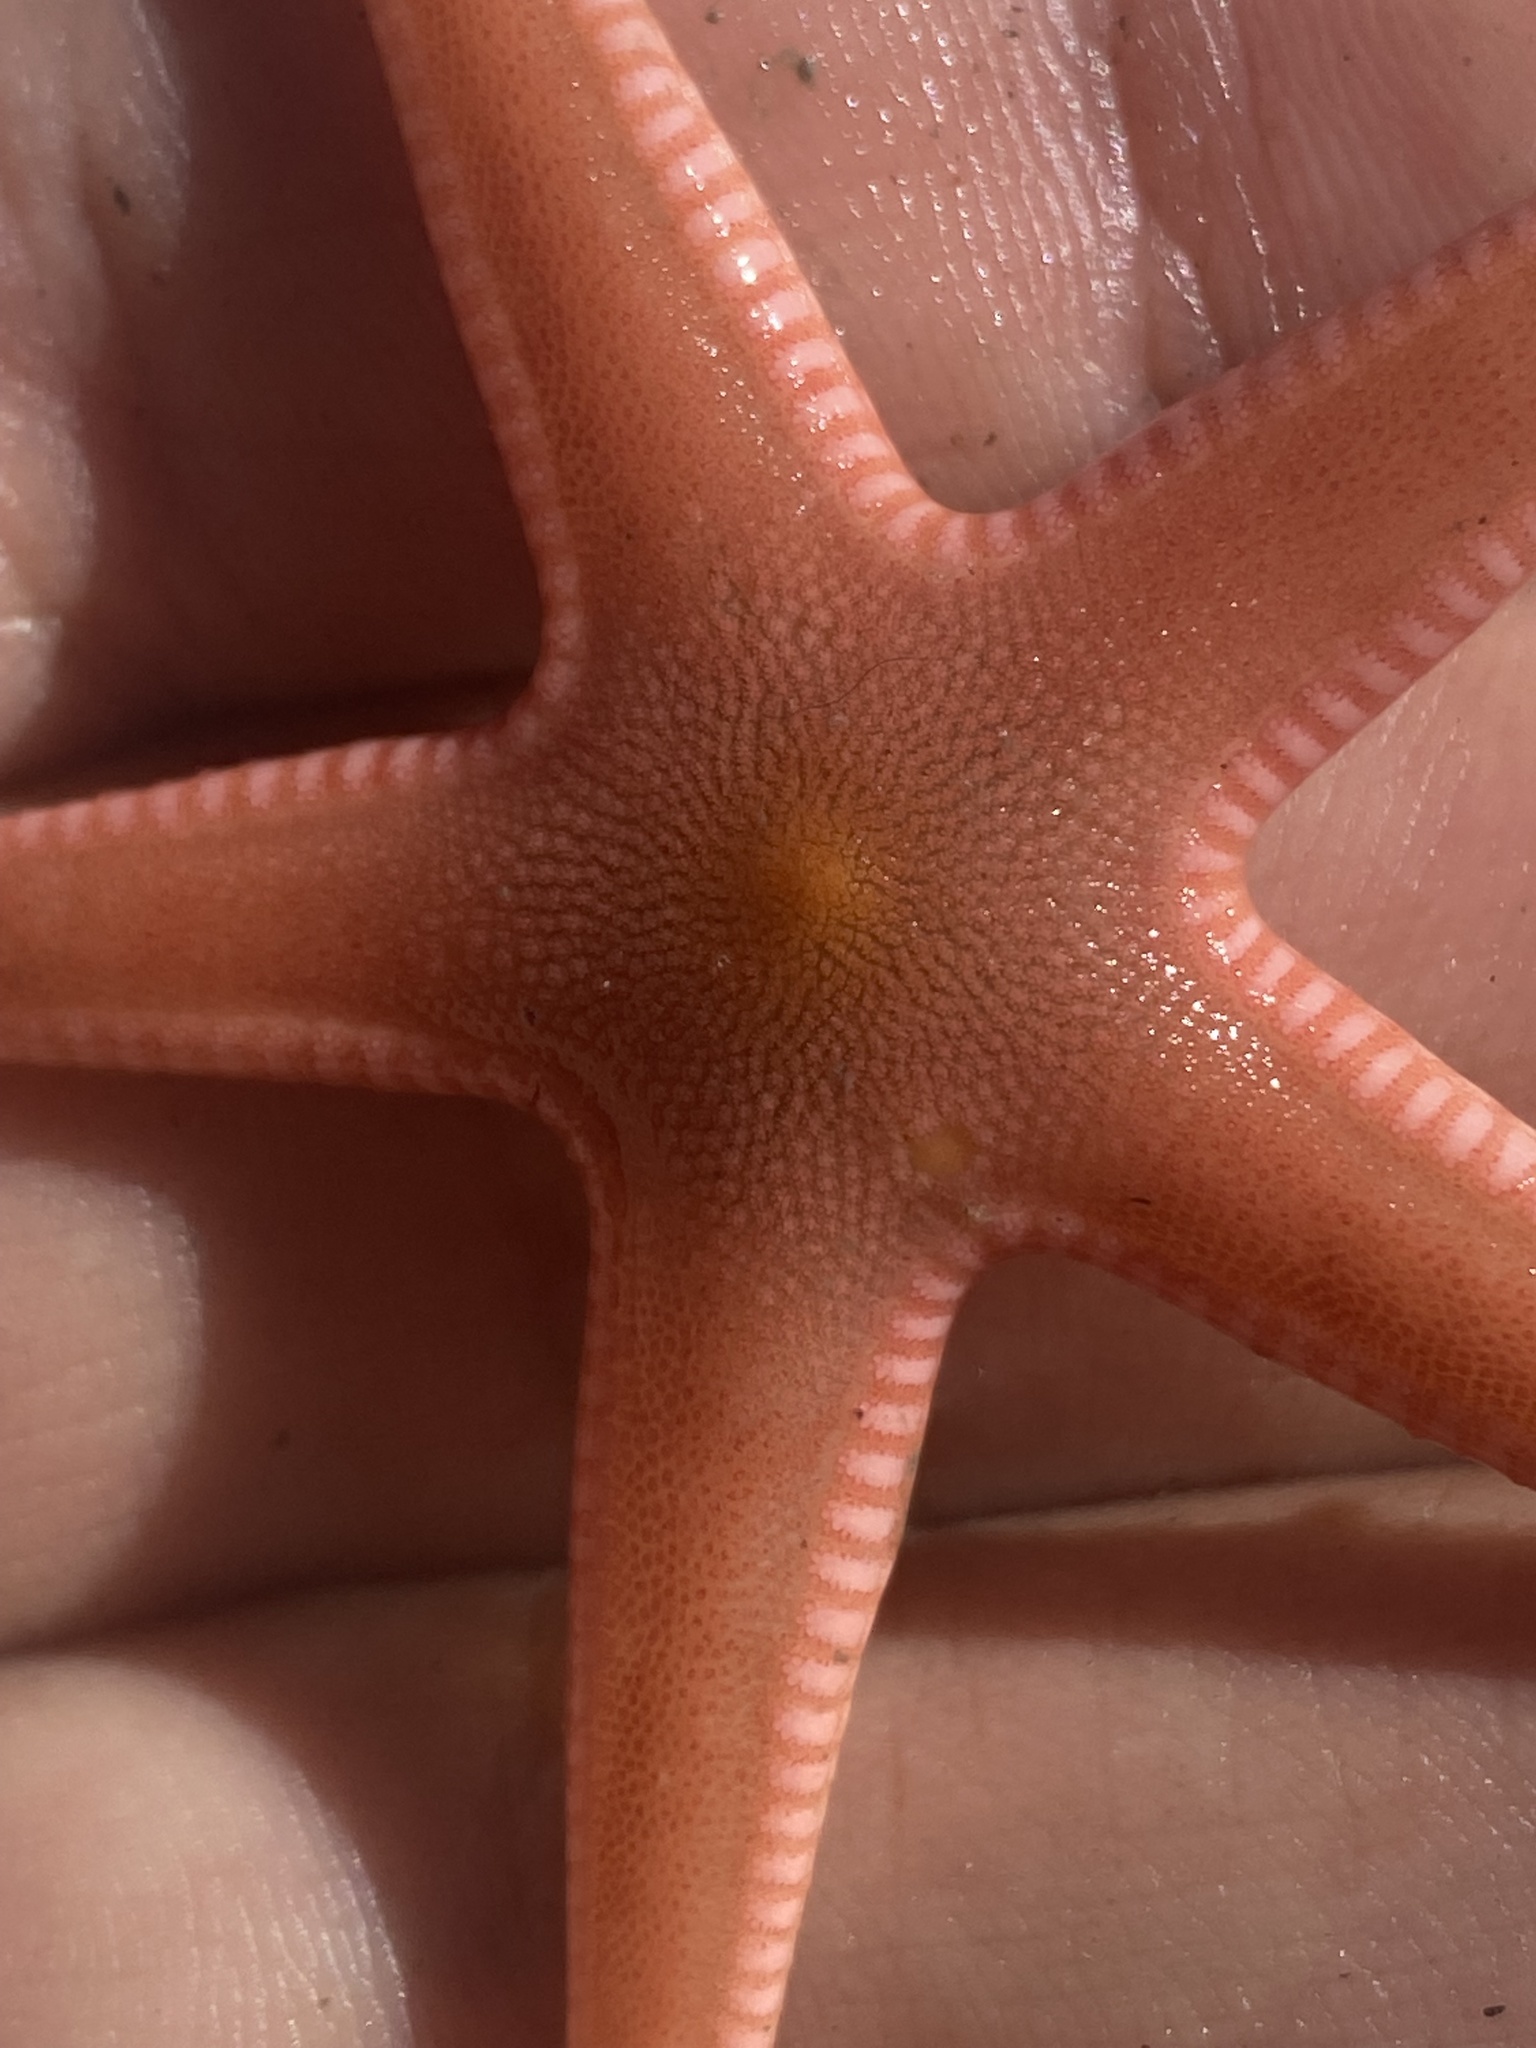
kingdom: Animalia
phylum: Echinodermata
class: Asteroidea
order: Paxillosida
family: Astropectinidae
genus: Bathybiaster
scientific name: Bathybiaster vexillifer
